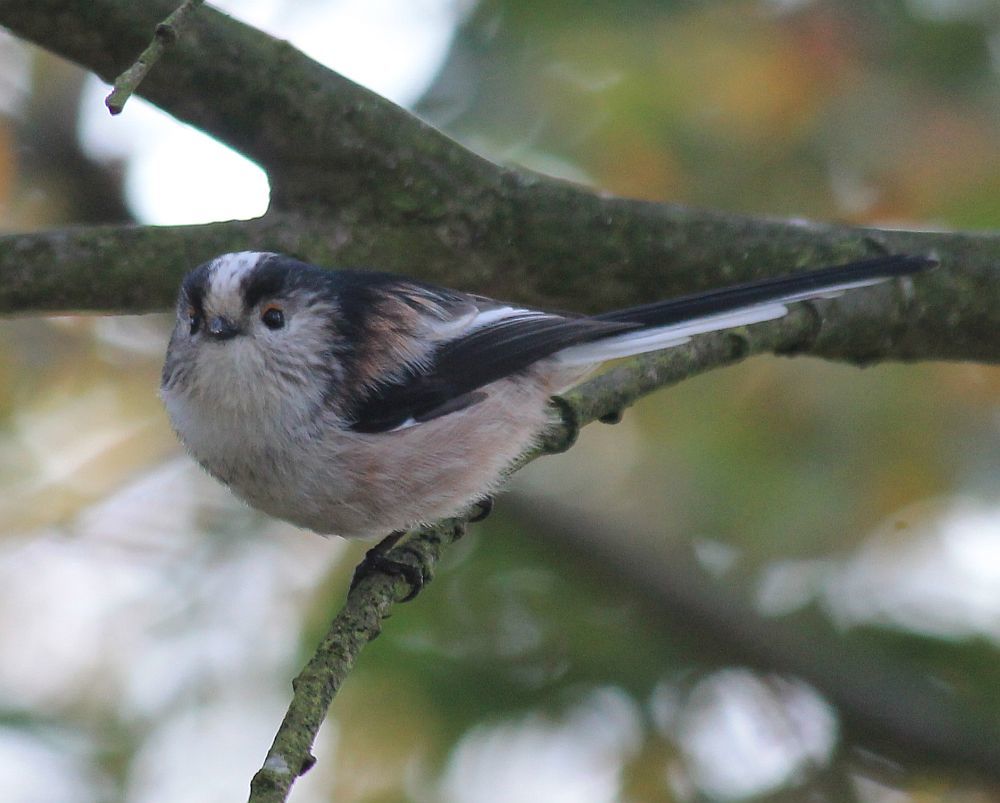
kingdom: Animalia
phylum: Chordata
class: Aves
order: Passeriformes
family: Aegithalidae
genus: Aegithalos
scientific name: Aegithalos caudatus
